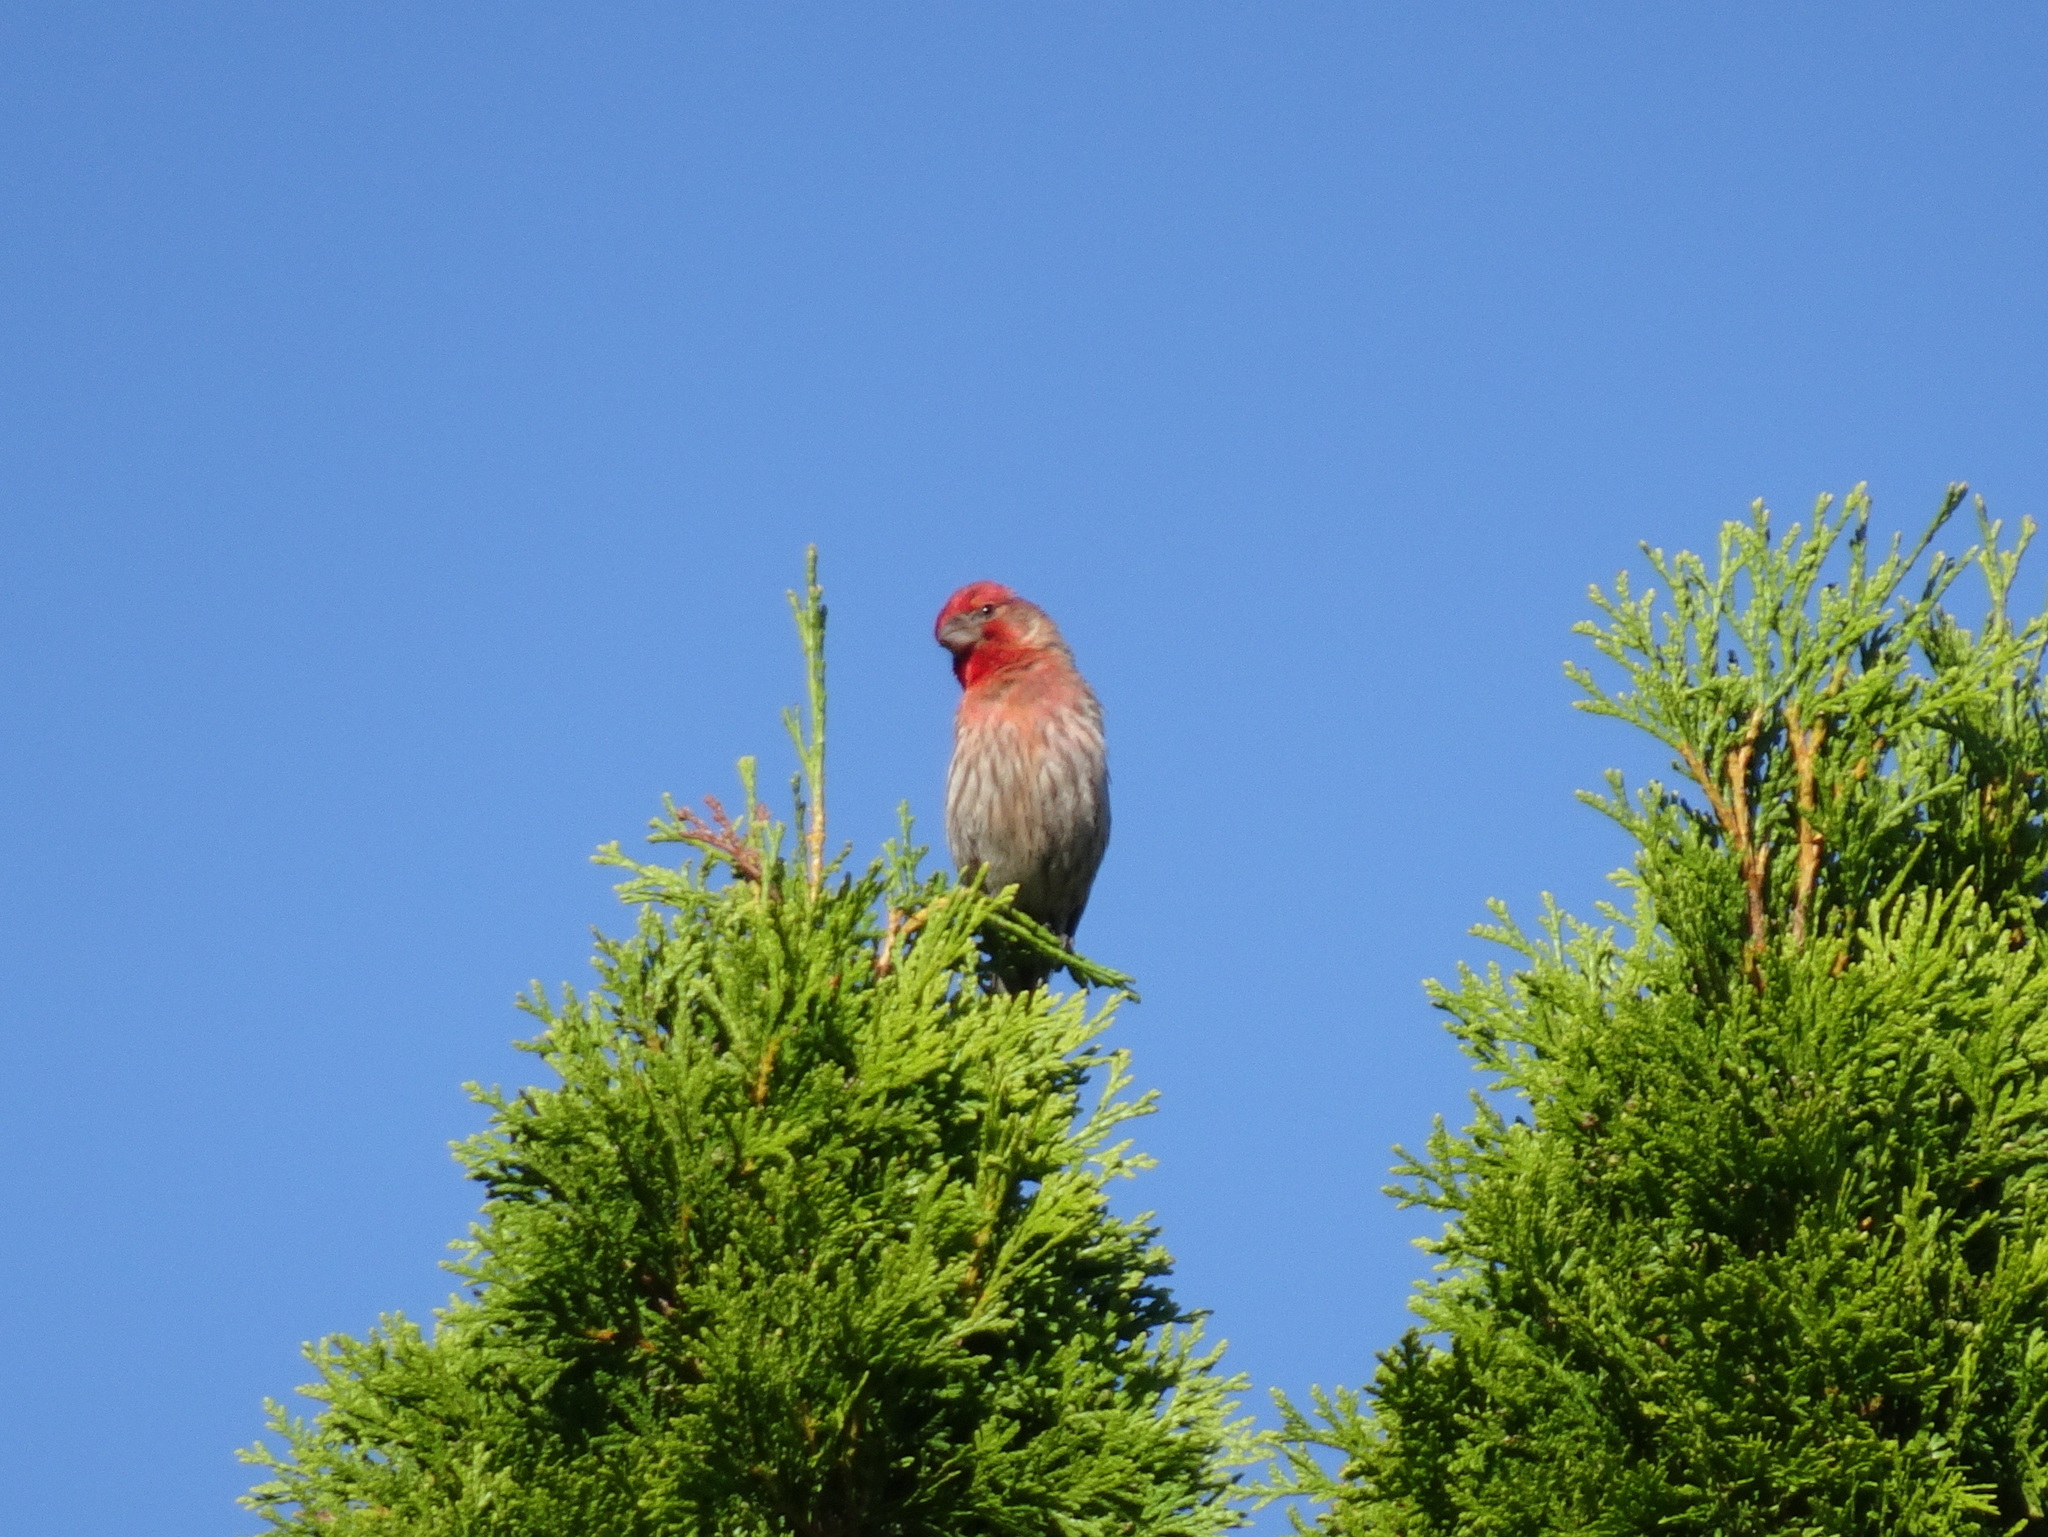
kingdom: Animalia
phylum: Chordata
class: Aves
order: Passeriformes
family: Fringillidae
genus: Haemorhous
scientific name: Haemorhous mexicanus
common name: House finch
